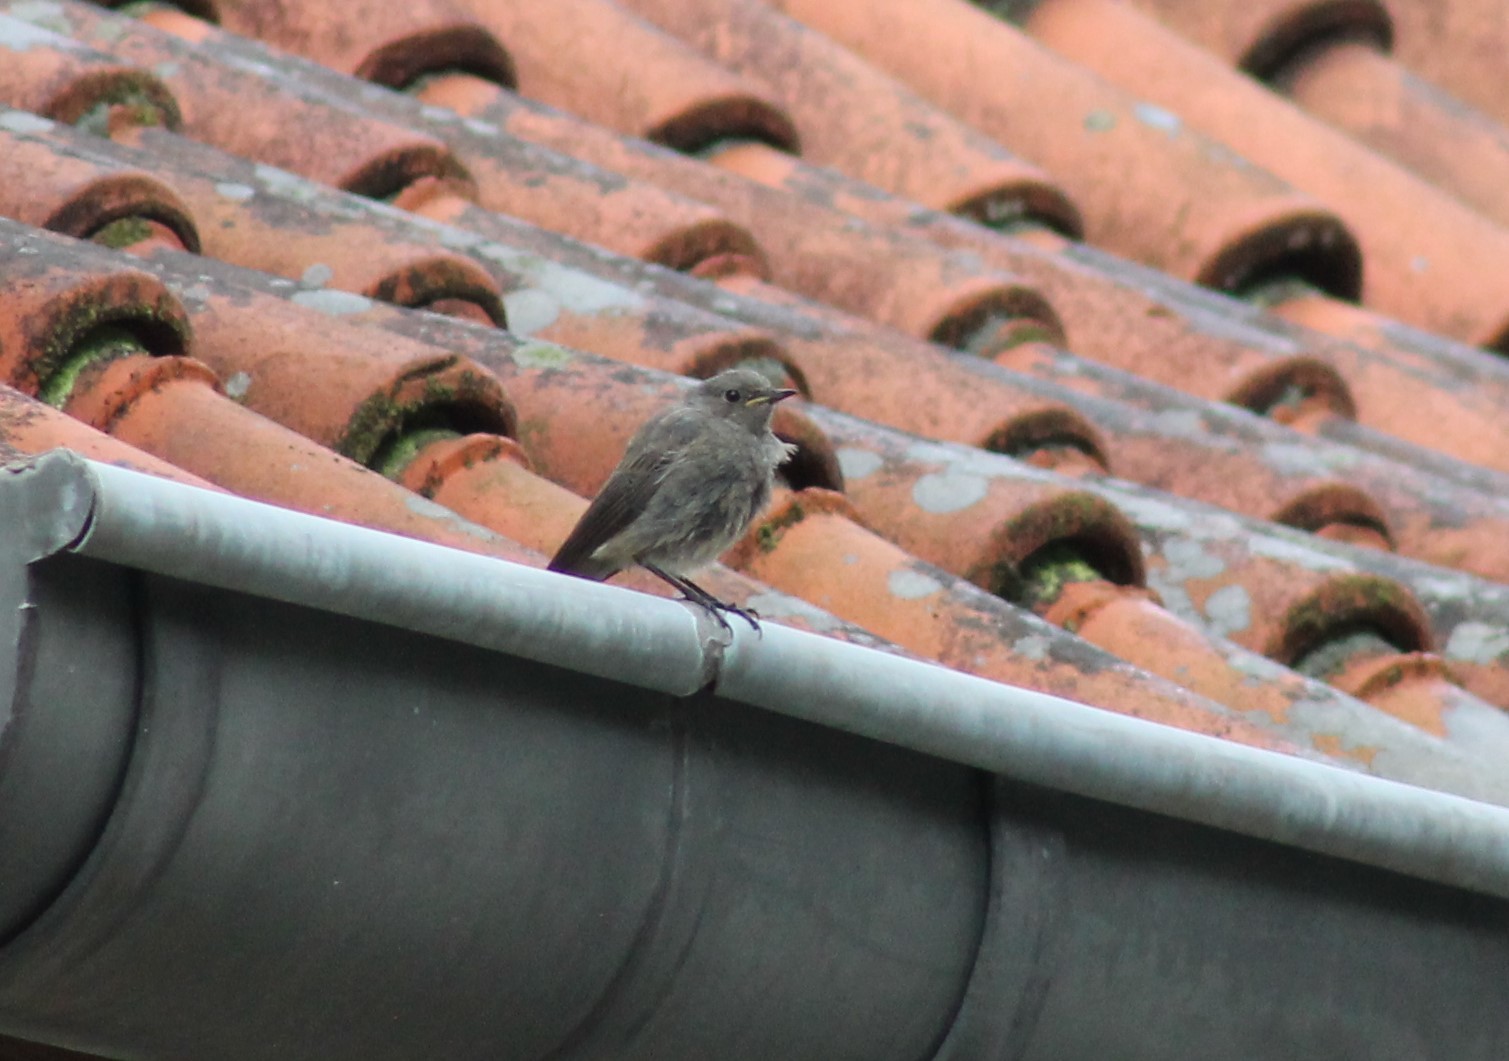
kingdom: Animalia
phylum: Chordata
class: Aves
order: Passeriformes
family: Muscicapidae
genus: Phoenicurus
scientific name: Phoenicurus ochruros
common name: Black redstart
